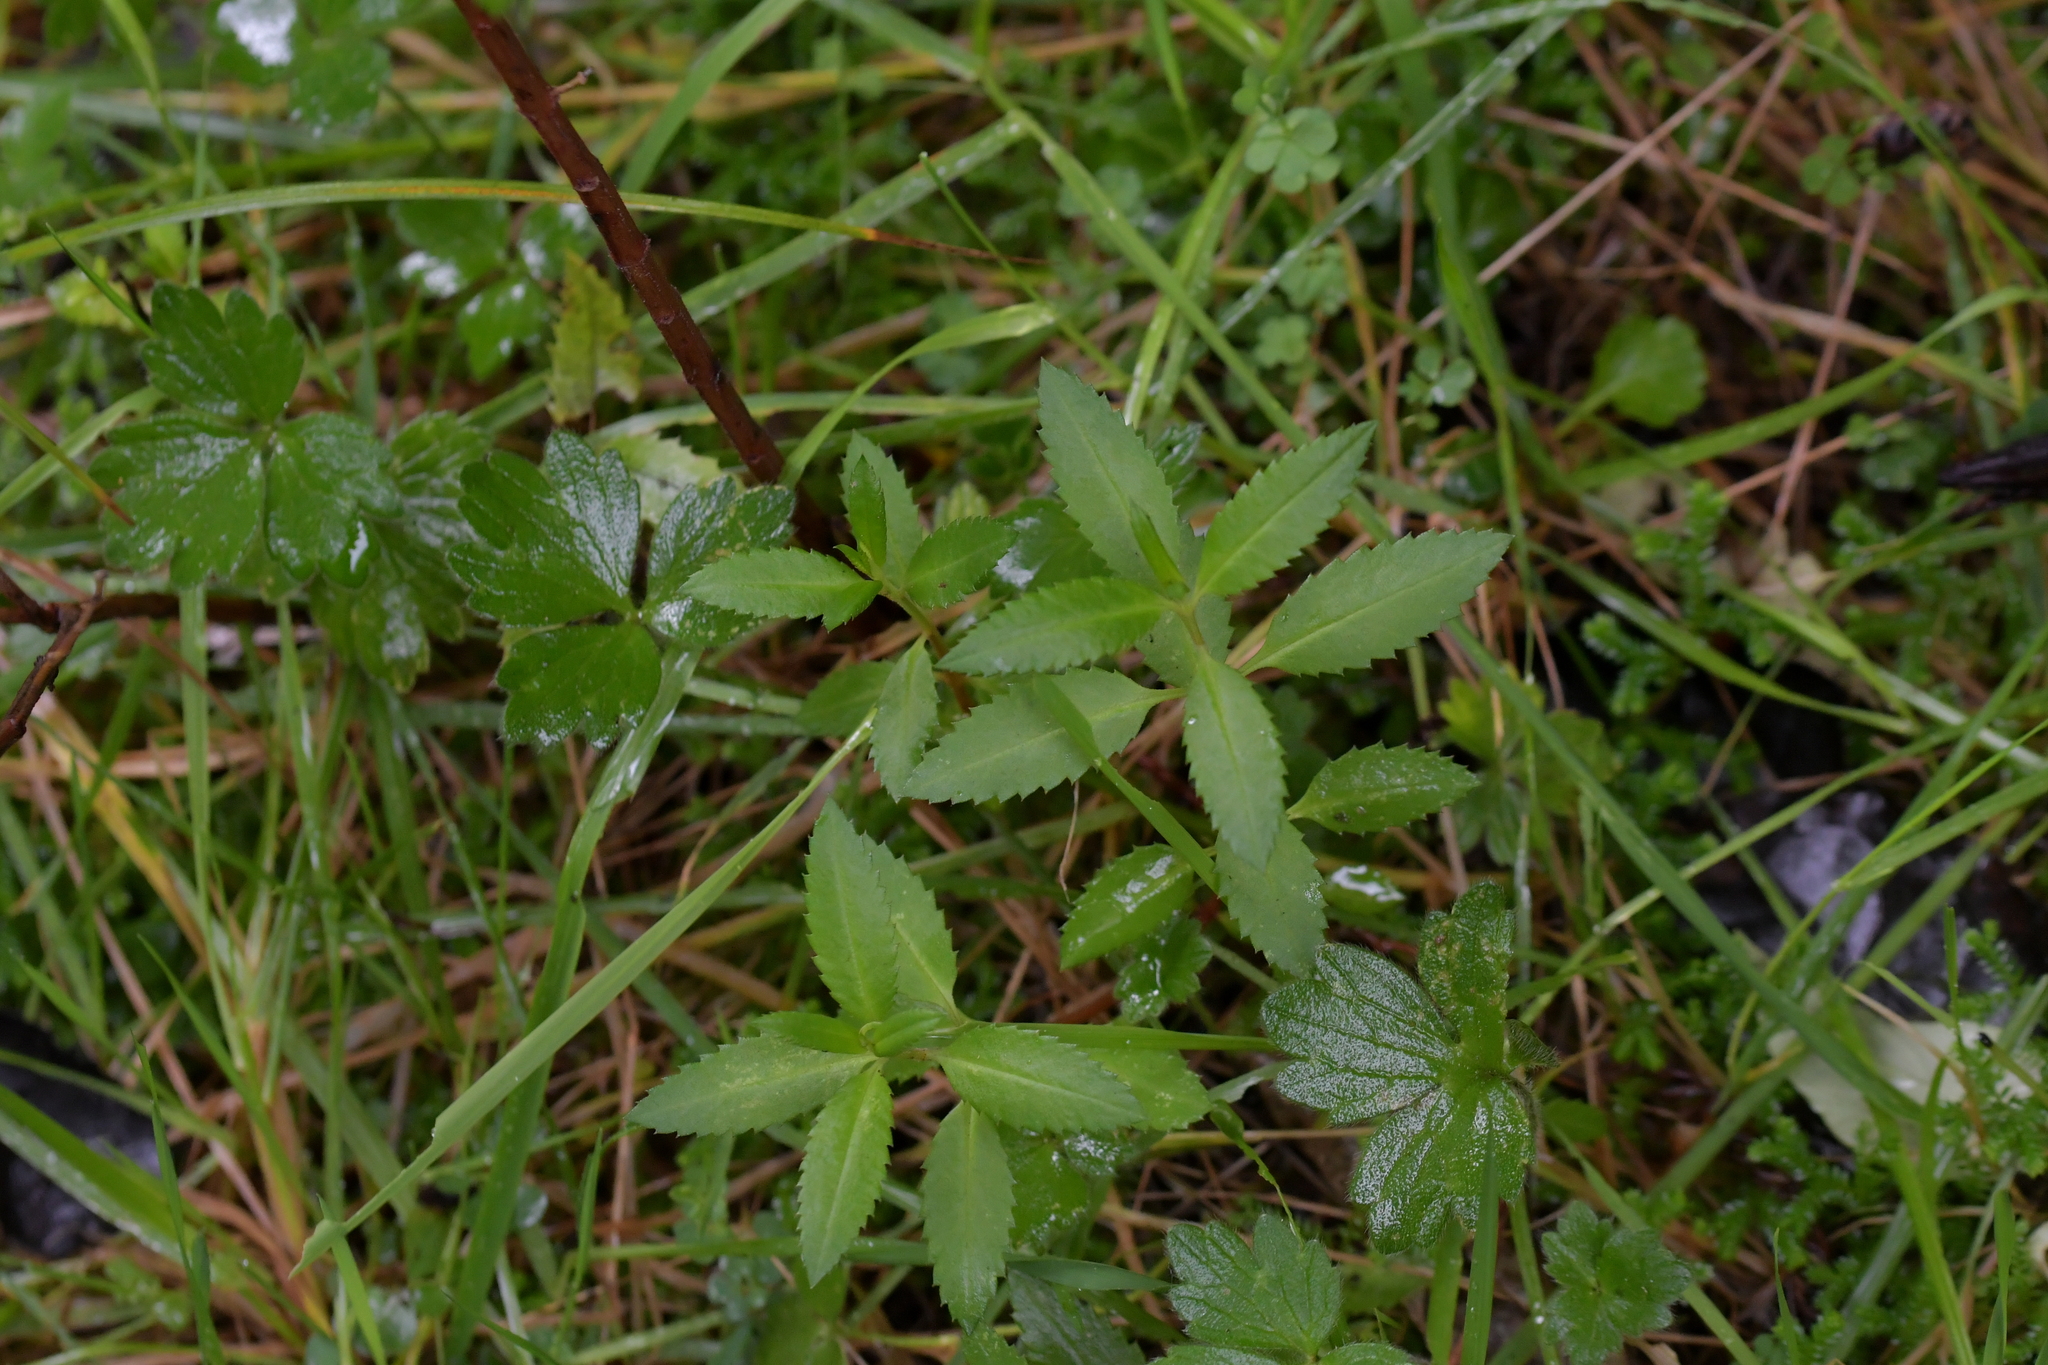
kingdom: Plantae
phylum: Tracheophyta
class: Magnoliopsida
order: Saxifragales
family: Haloragaceae
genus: Haloragis
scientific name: Haloragis erecta
